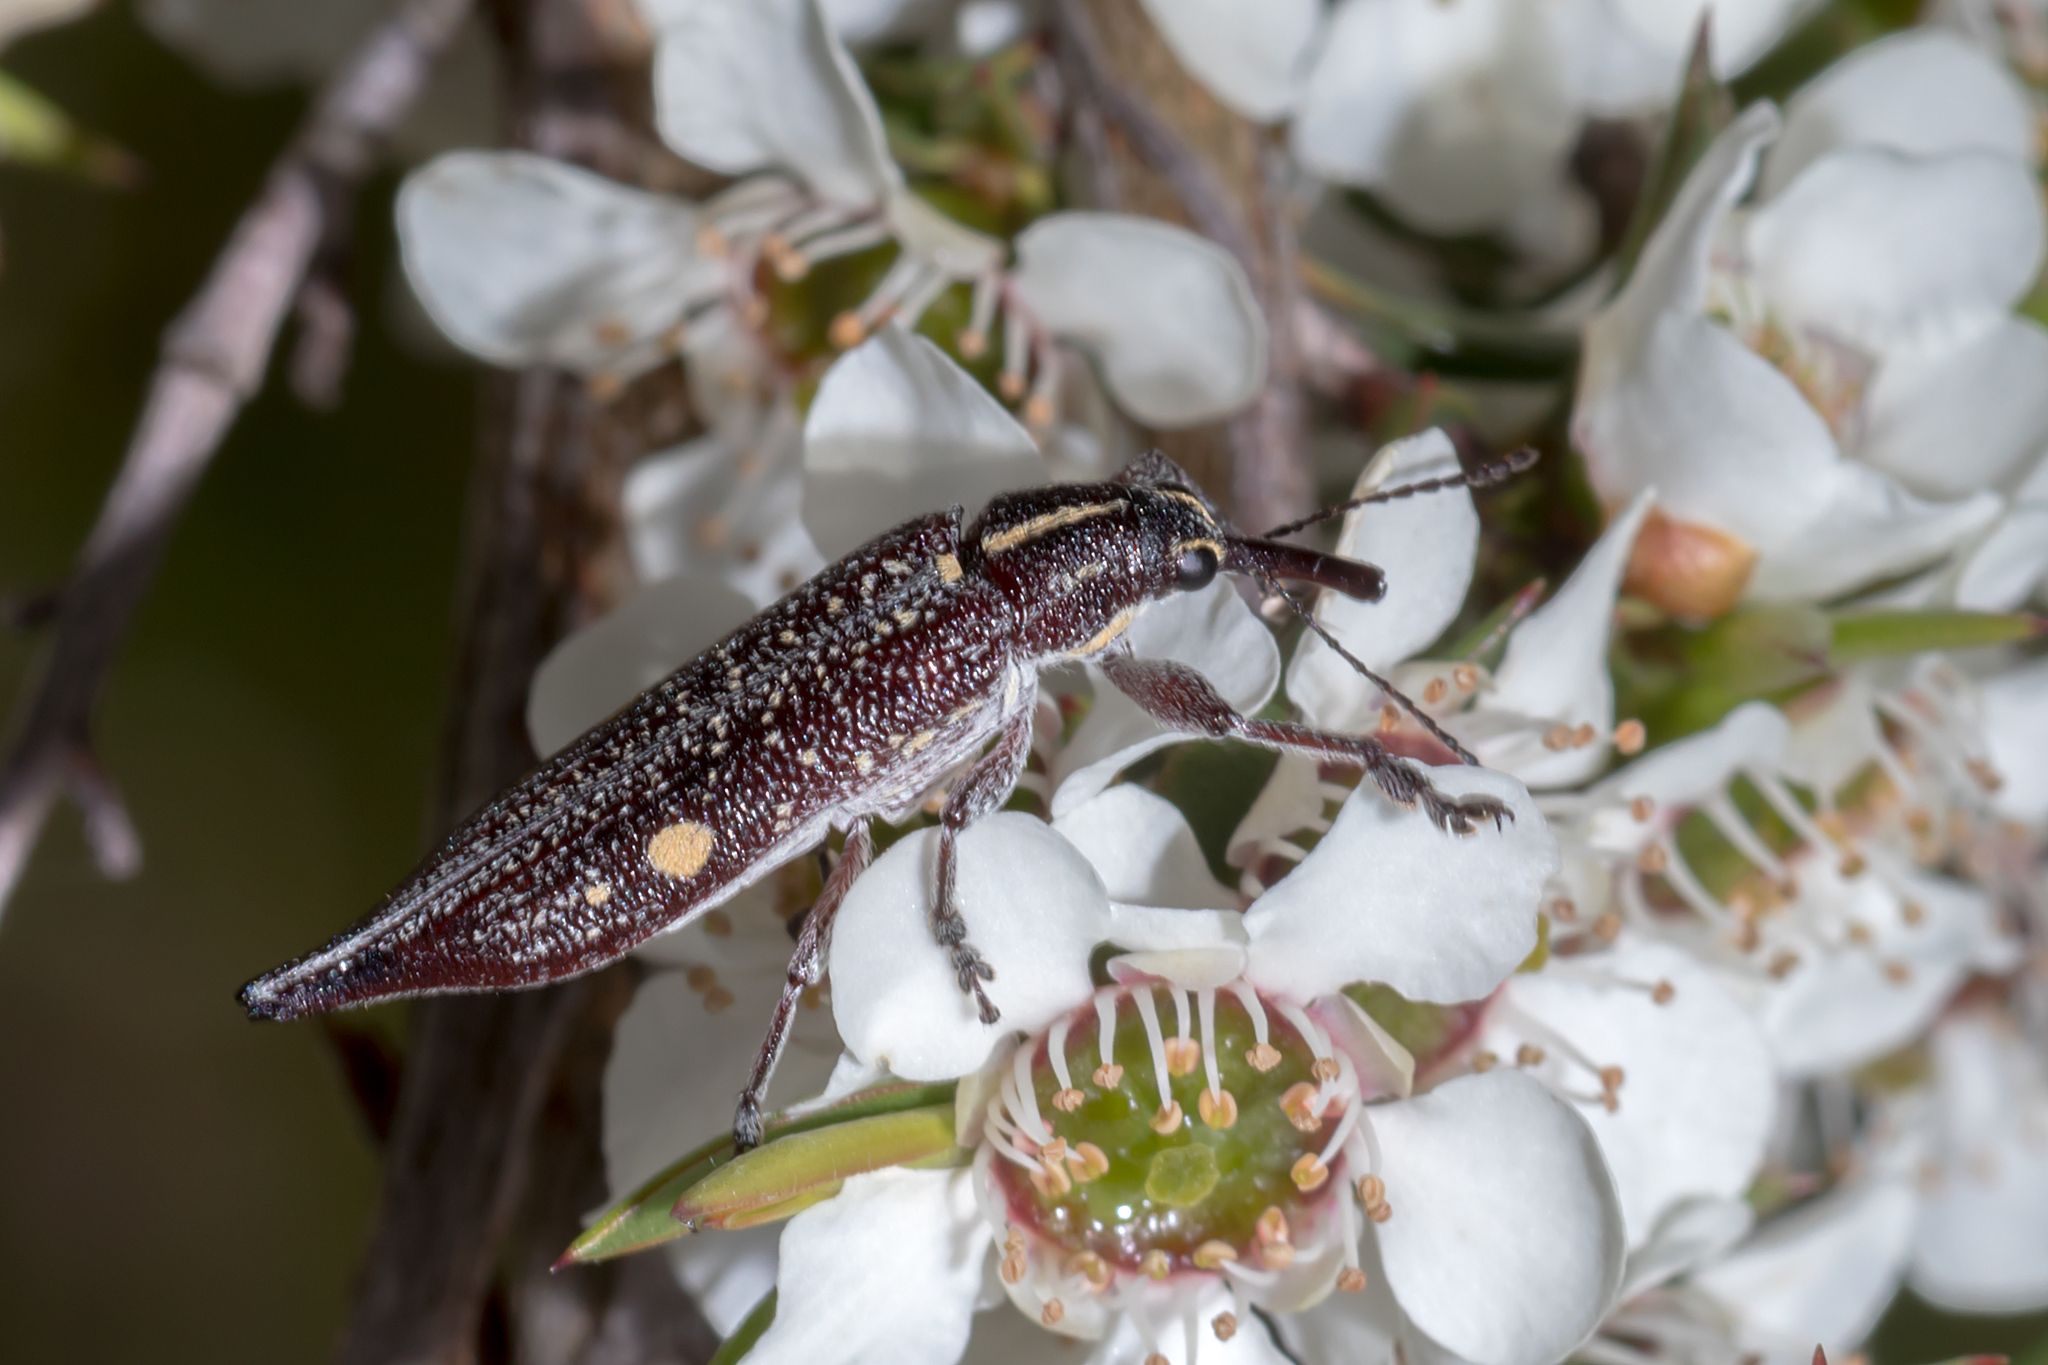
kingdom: Animalia
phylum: Arthropoda
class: Insecta
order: Coleoptera
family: Belidae
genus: Rhinotia
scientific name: Rhinotia bidentata
